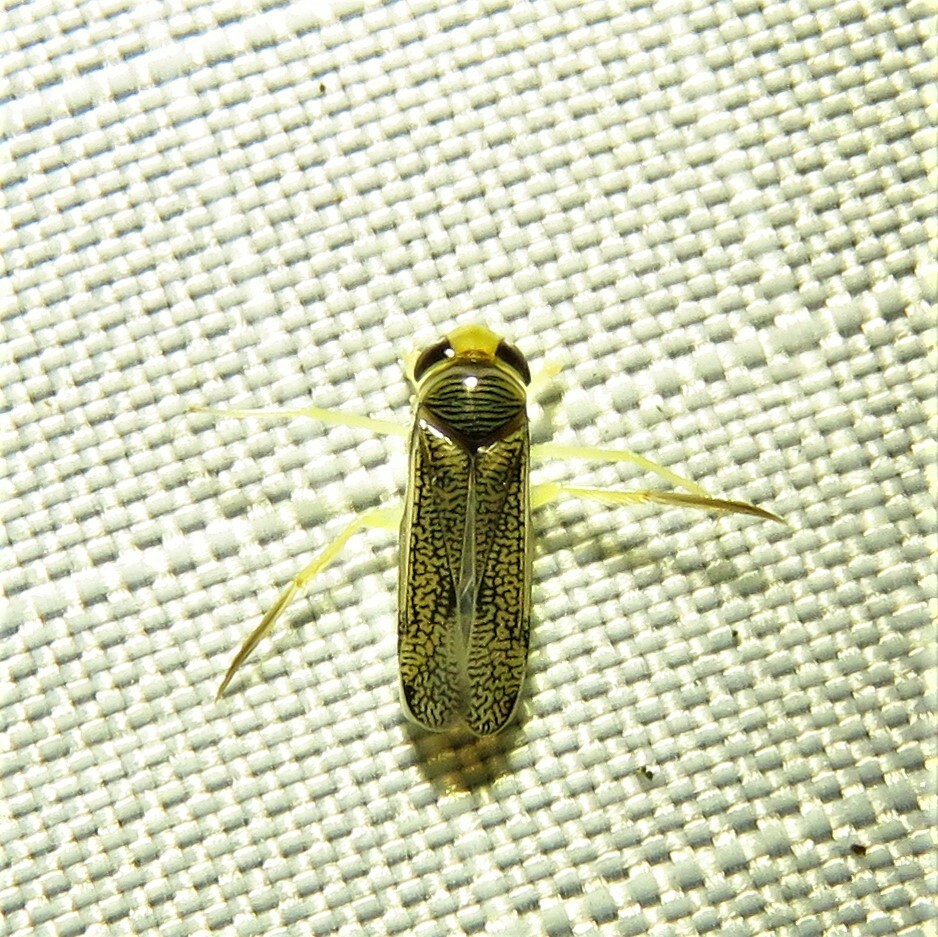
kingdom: Animalia
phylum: Arthropoda
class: Insecta
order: Hemiptera
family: Corixidae
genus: Trichocorixa
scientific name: Trichocorixa
